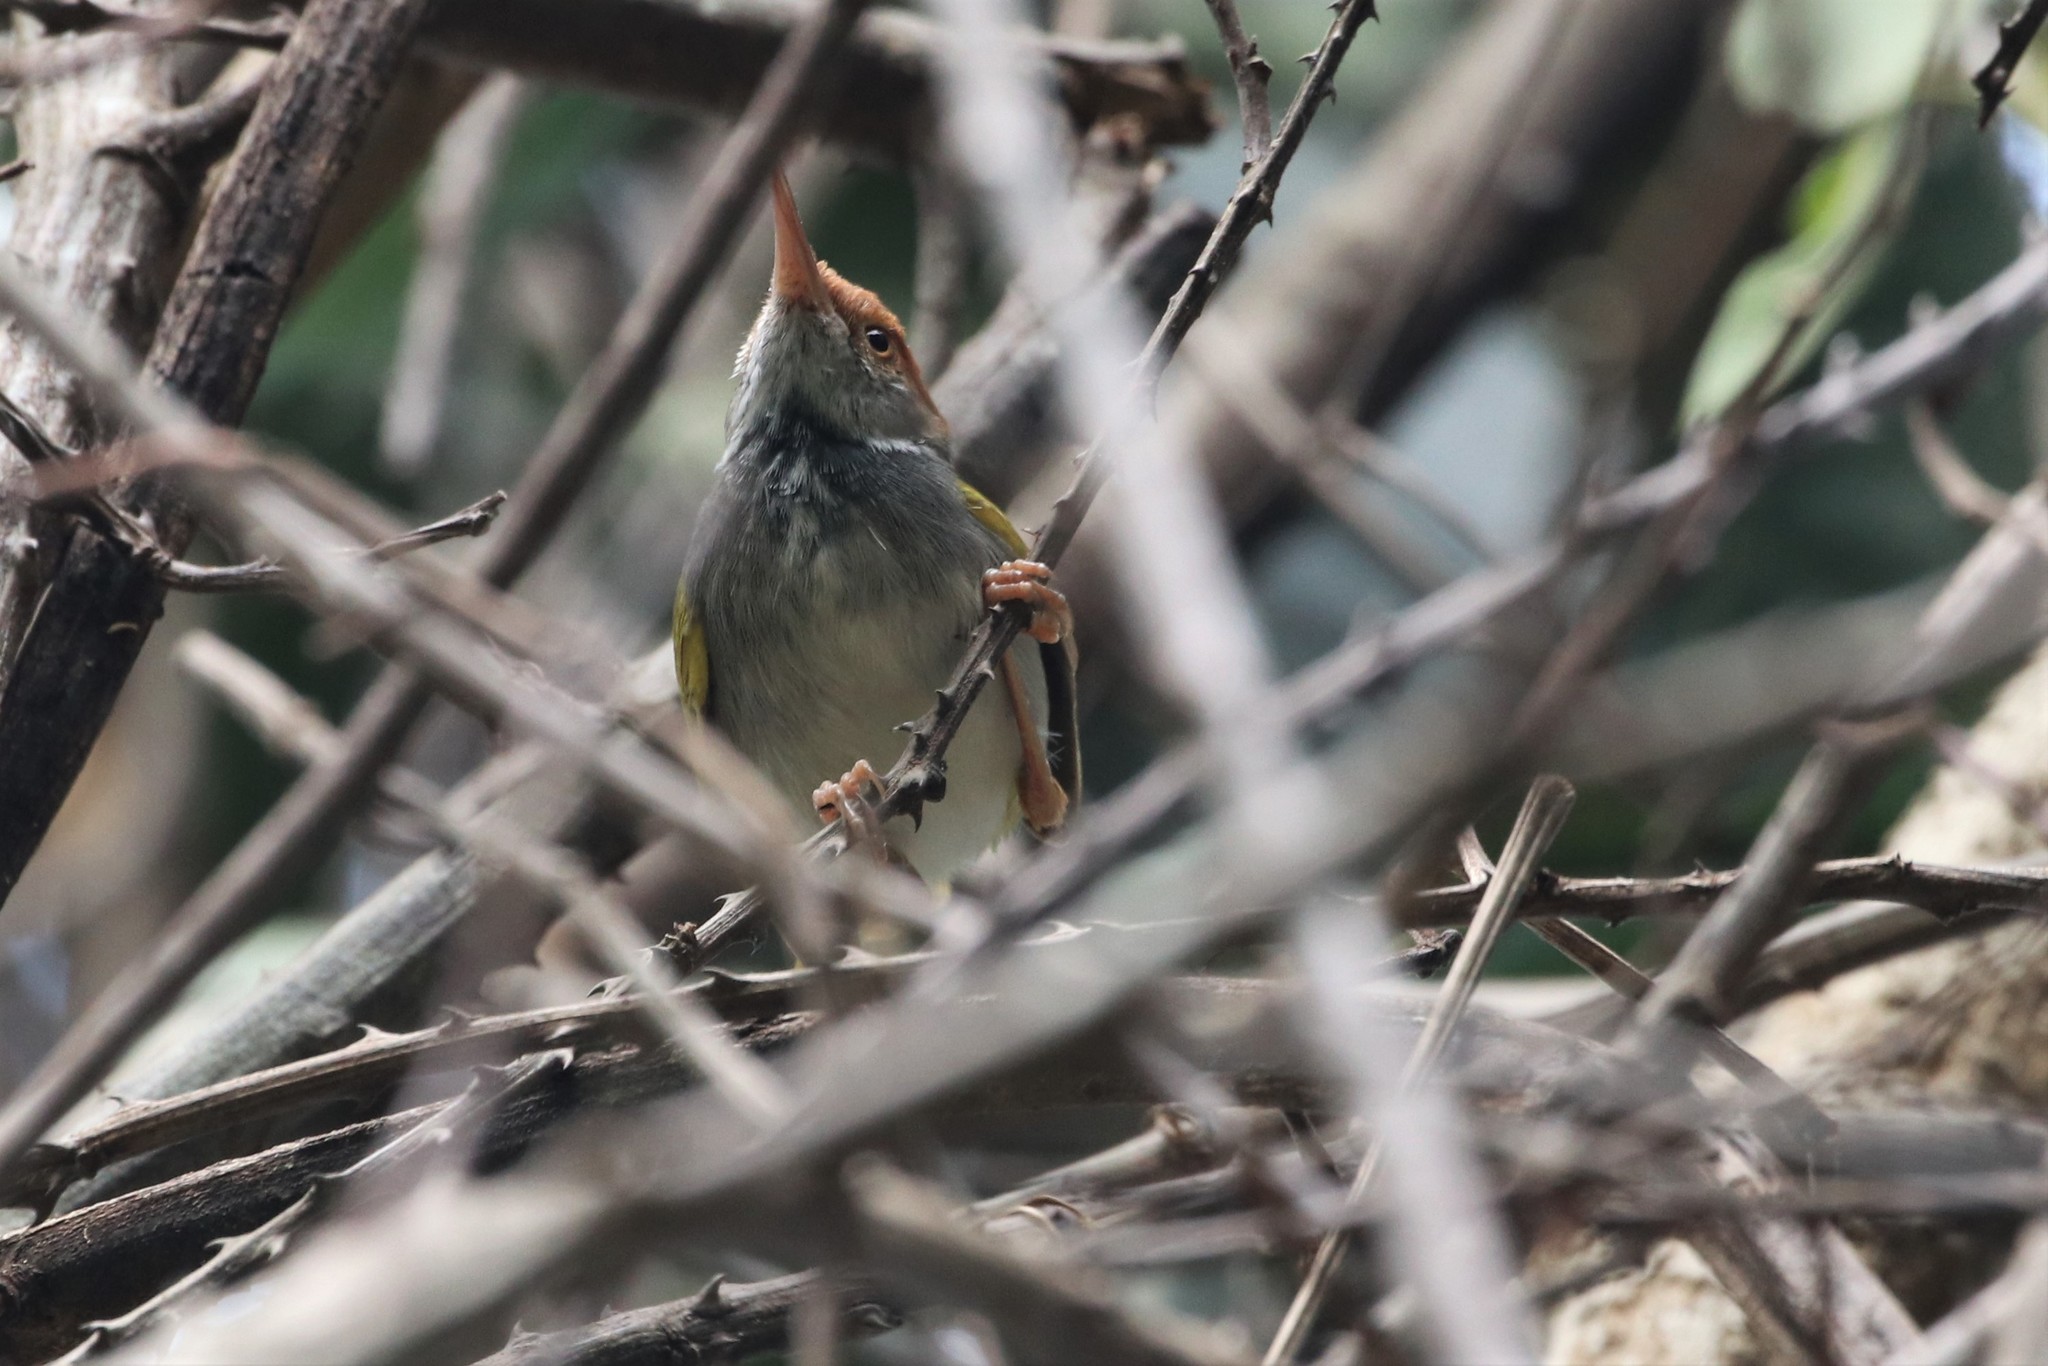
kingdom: Animalia
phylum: Chordata
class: Aves
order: Passeriformes
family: Cisticolidae
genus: Orthotomus
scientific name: Orthotomus atrogularis
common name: Dark-necked tailorbird
